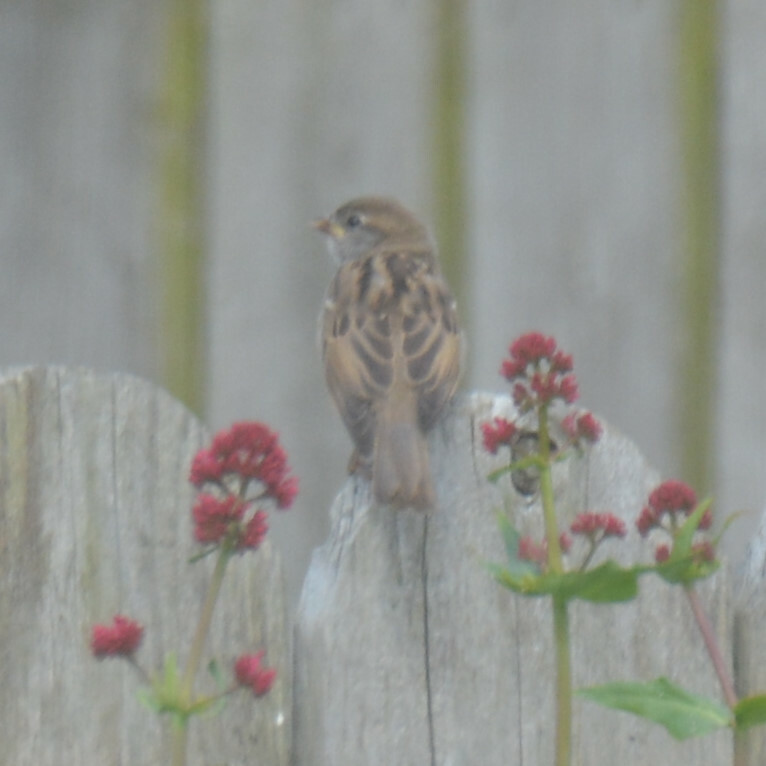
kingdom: Animalia
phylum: Chordata
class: Aves
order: Passeriformes
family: Passeridae
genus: Passer
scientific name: Passer domesticus
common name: House sparrow
